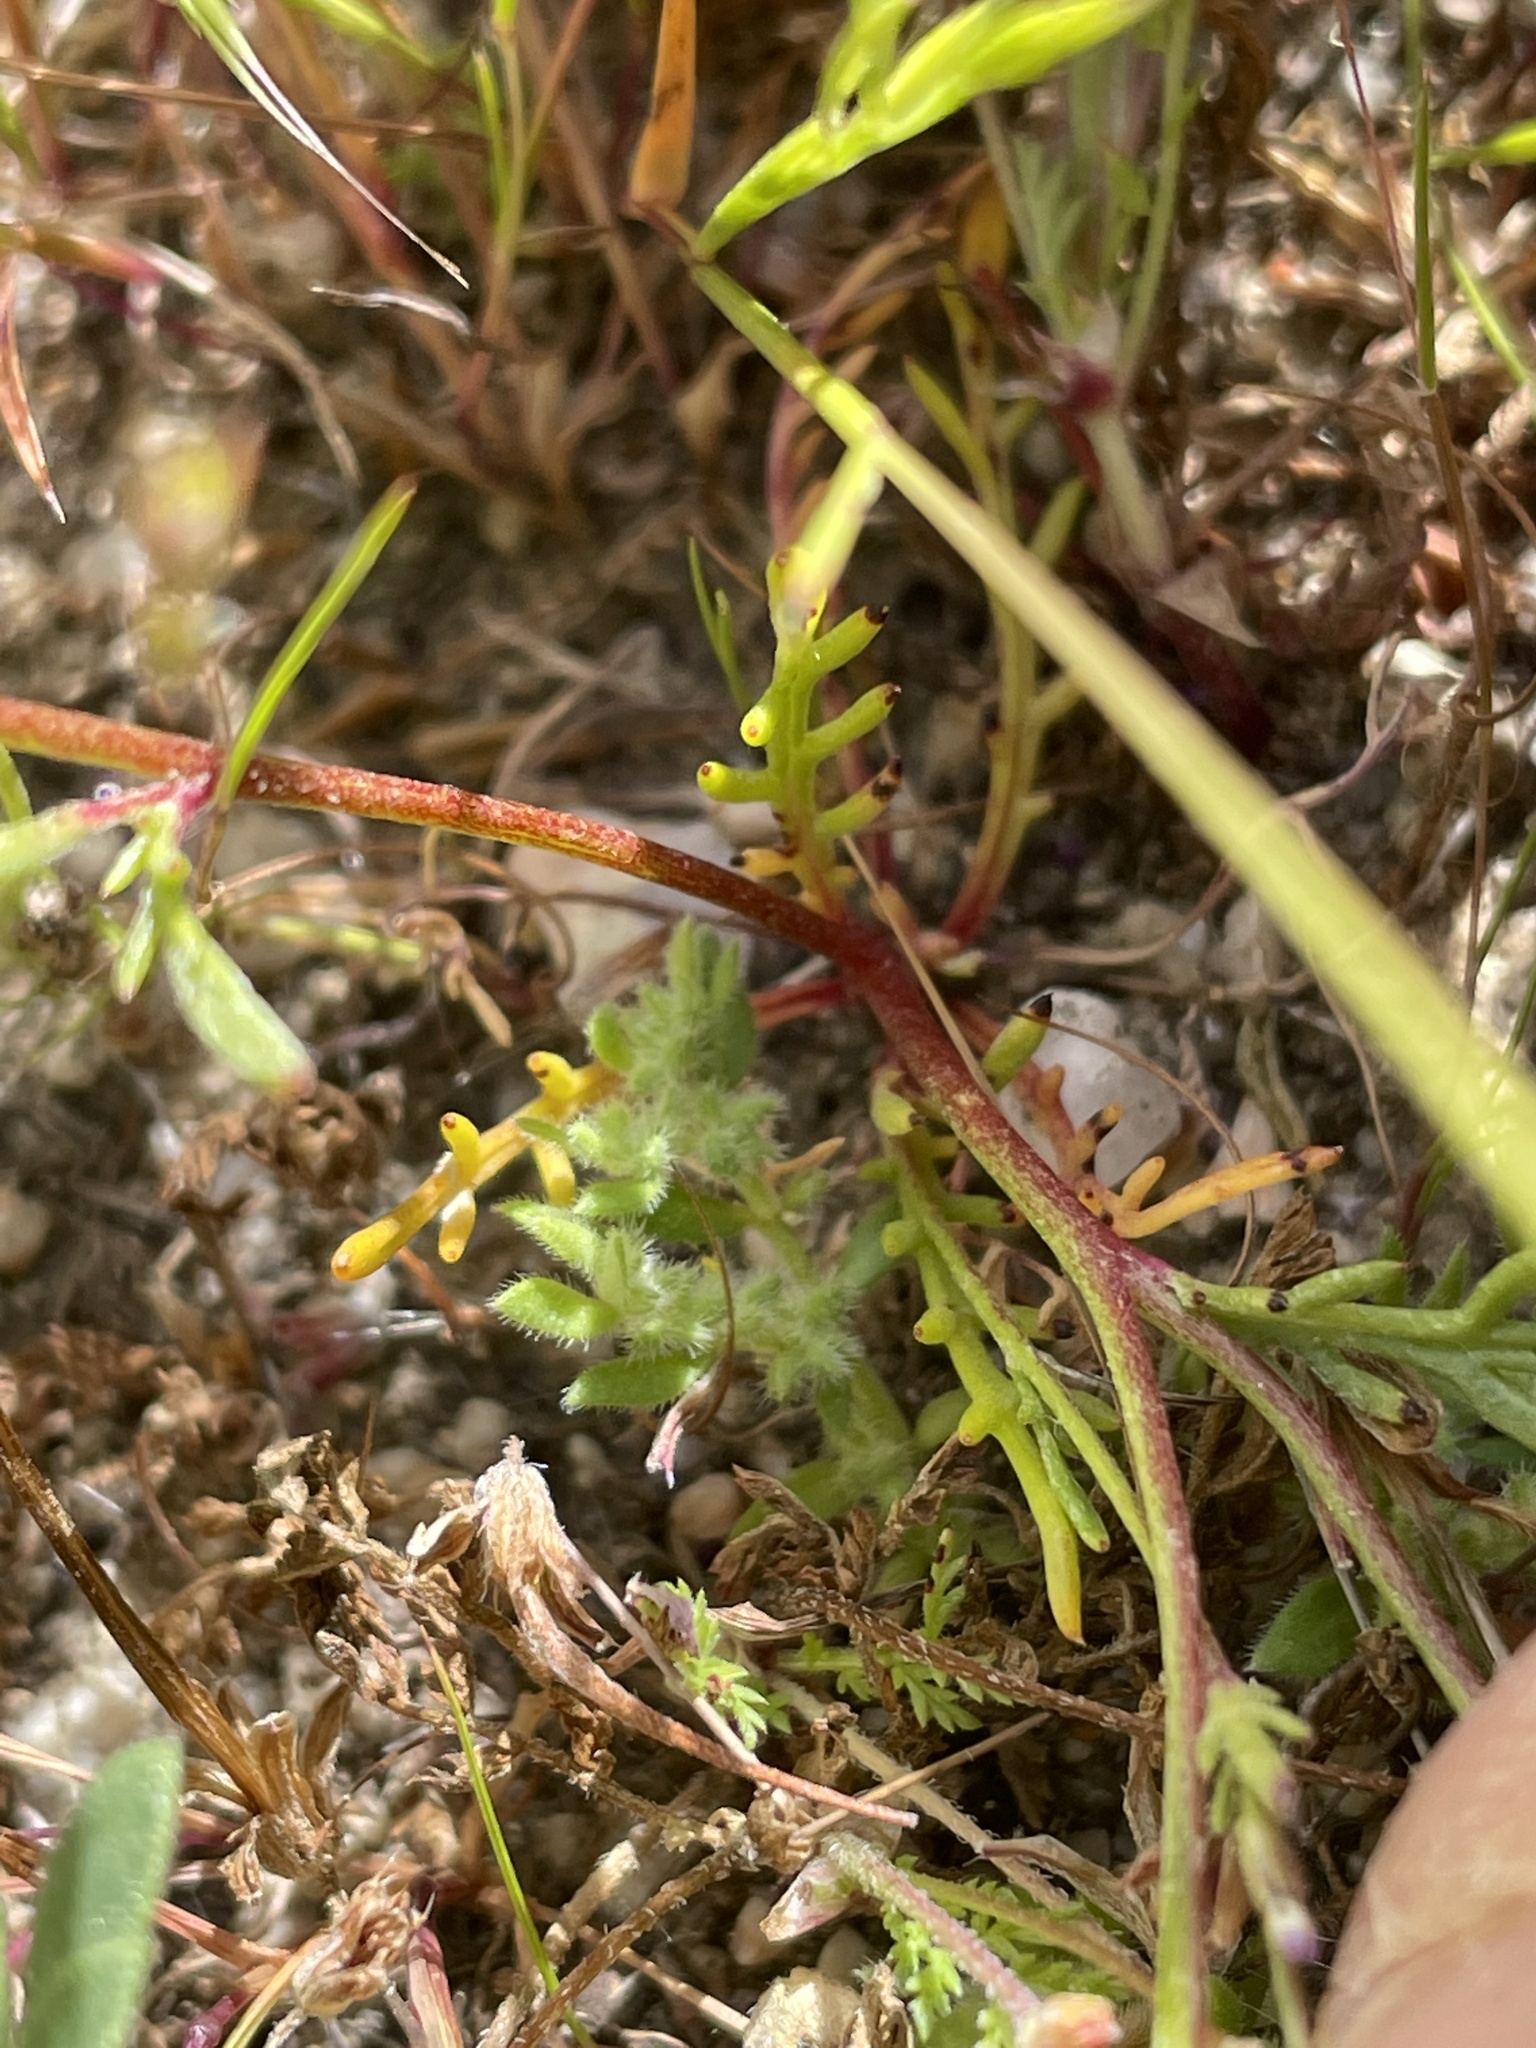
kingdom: Plantae
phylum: Tracheophyta
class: Magnoliopsida
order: Ericales
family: Polemoniaceae
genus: Gilia
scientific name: Gilia minor
